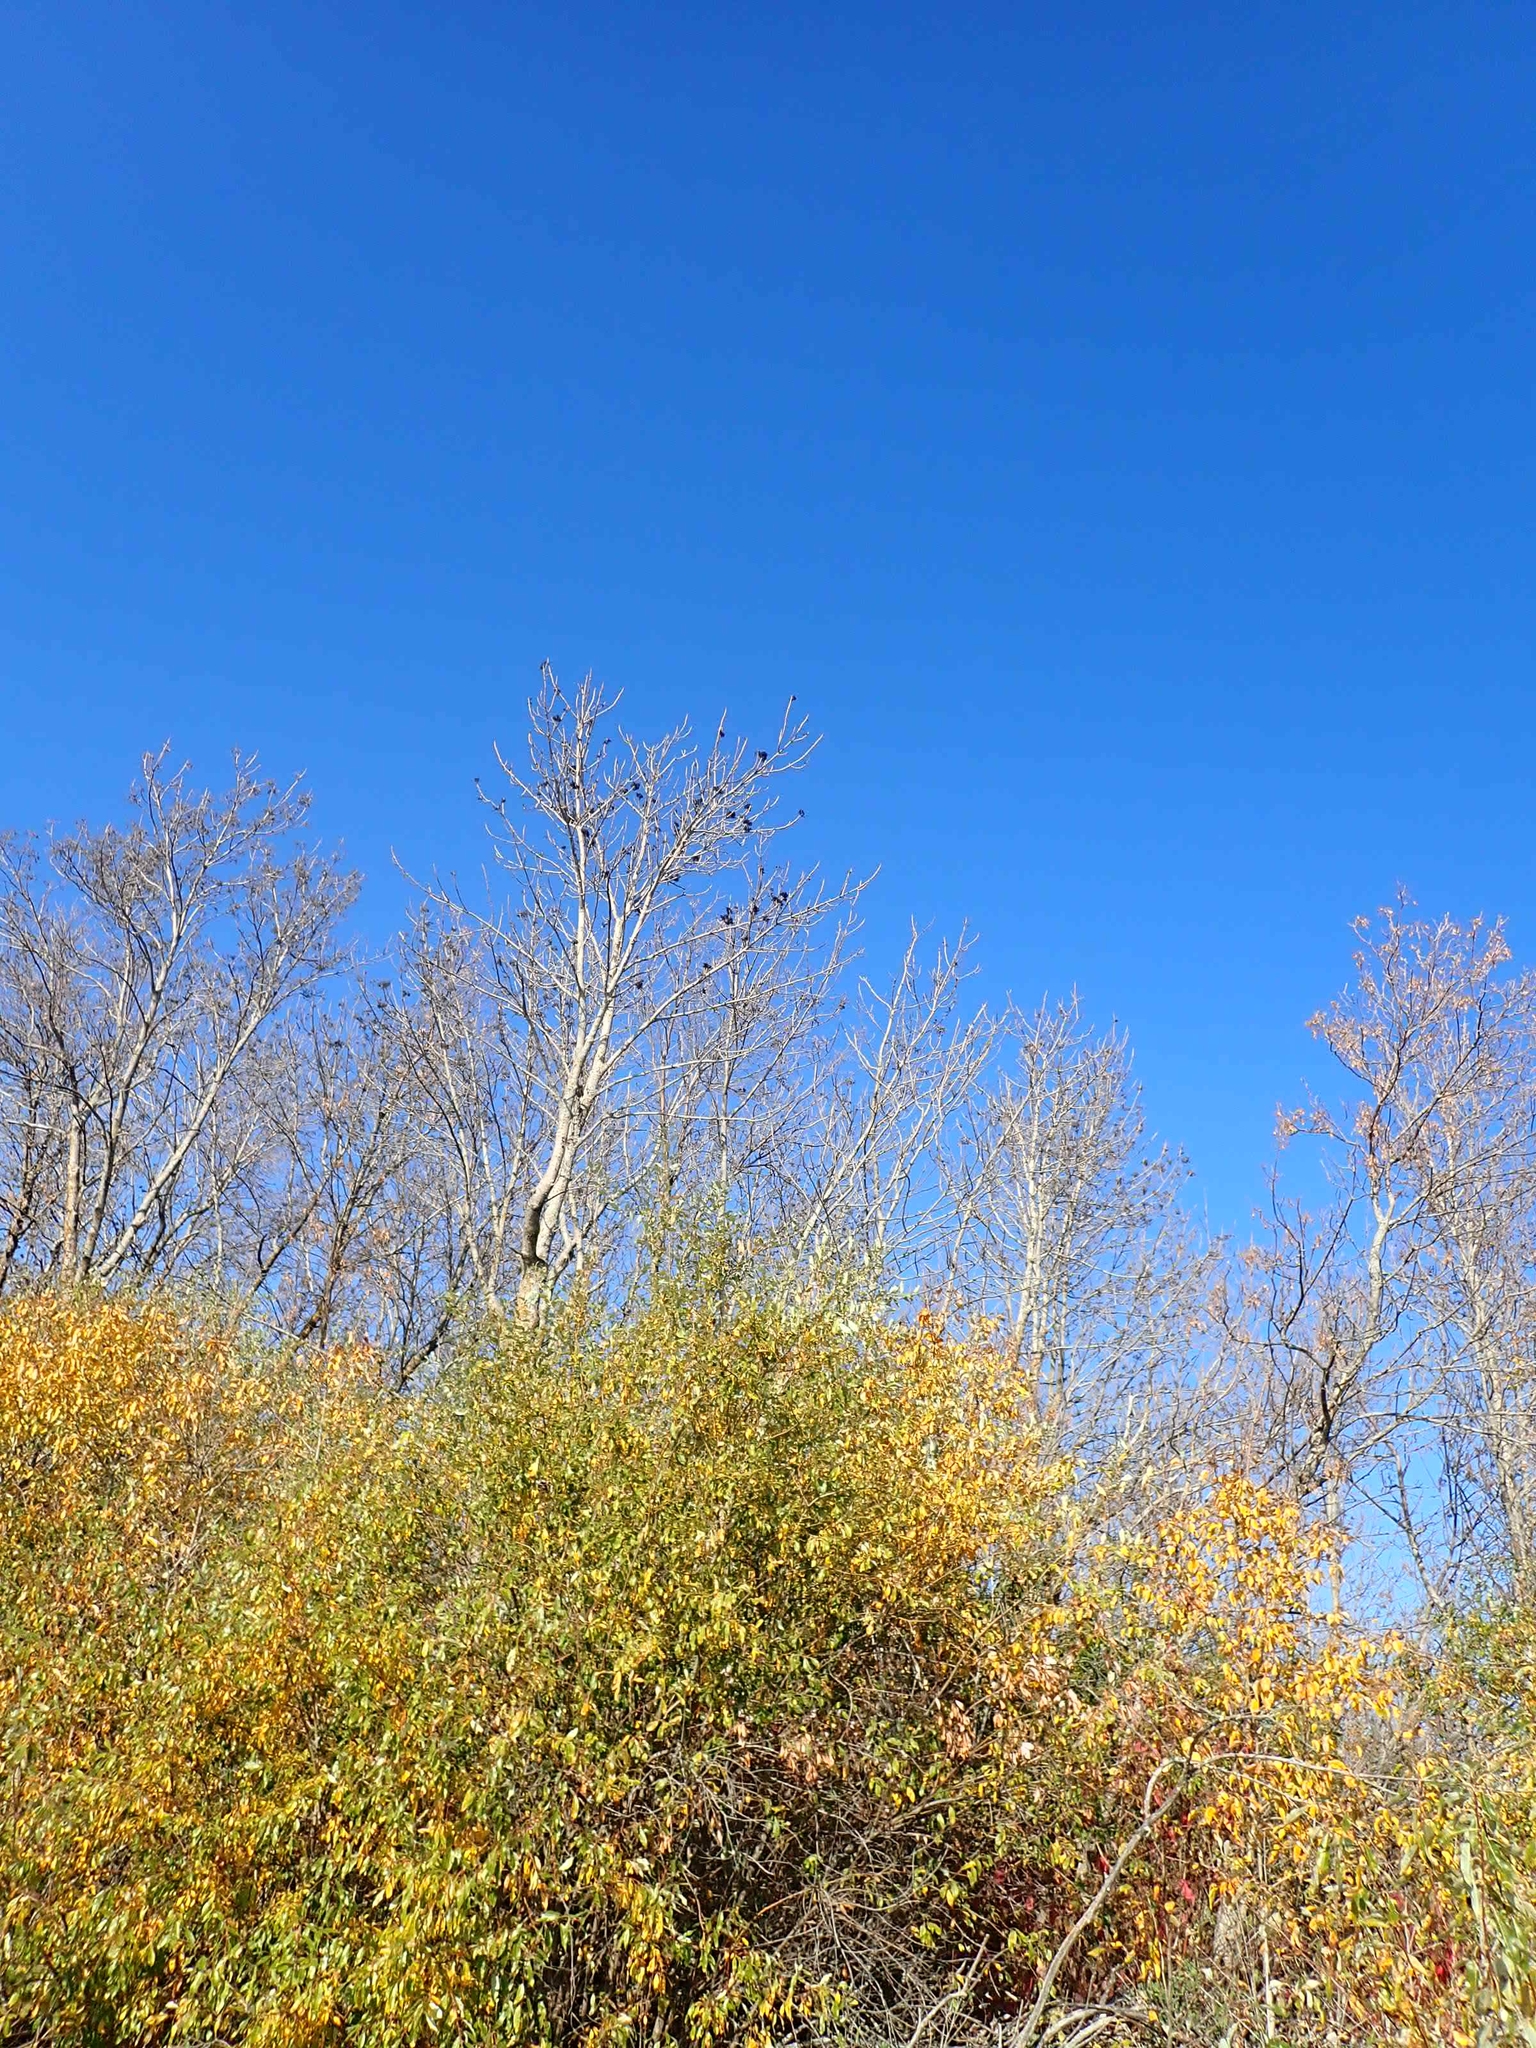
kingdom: Plantae
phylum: Tracheophyta
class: Magnoliopsida
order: Lamiales
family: Oleaceae
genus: Fraxinus
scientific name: Fraxinus pennsylvanica
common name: Green ash
